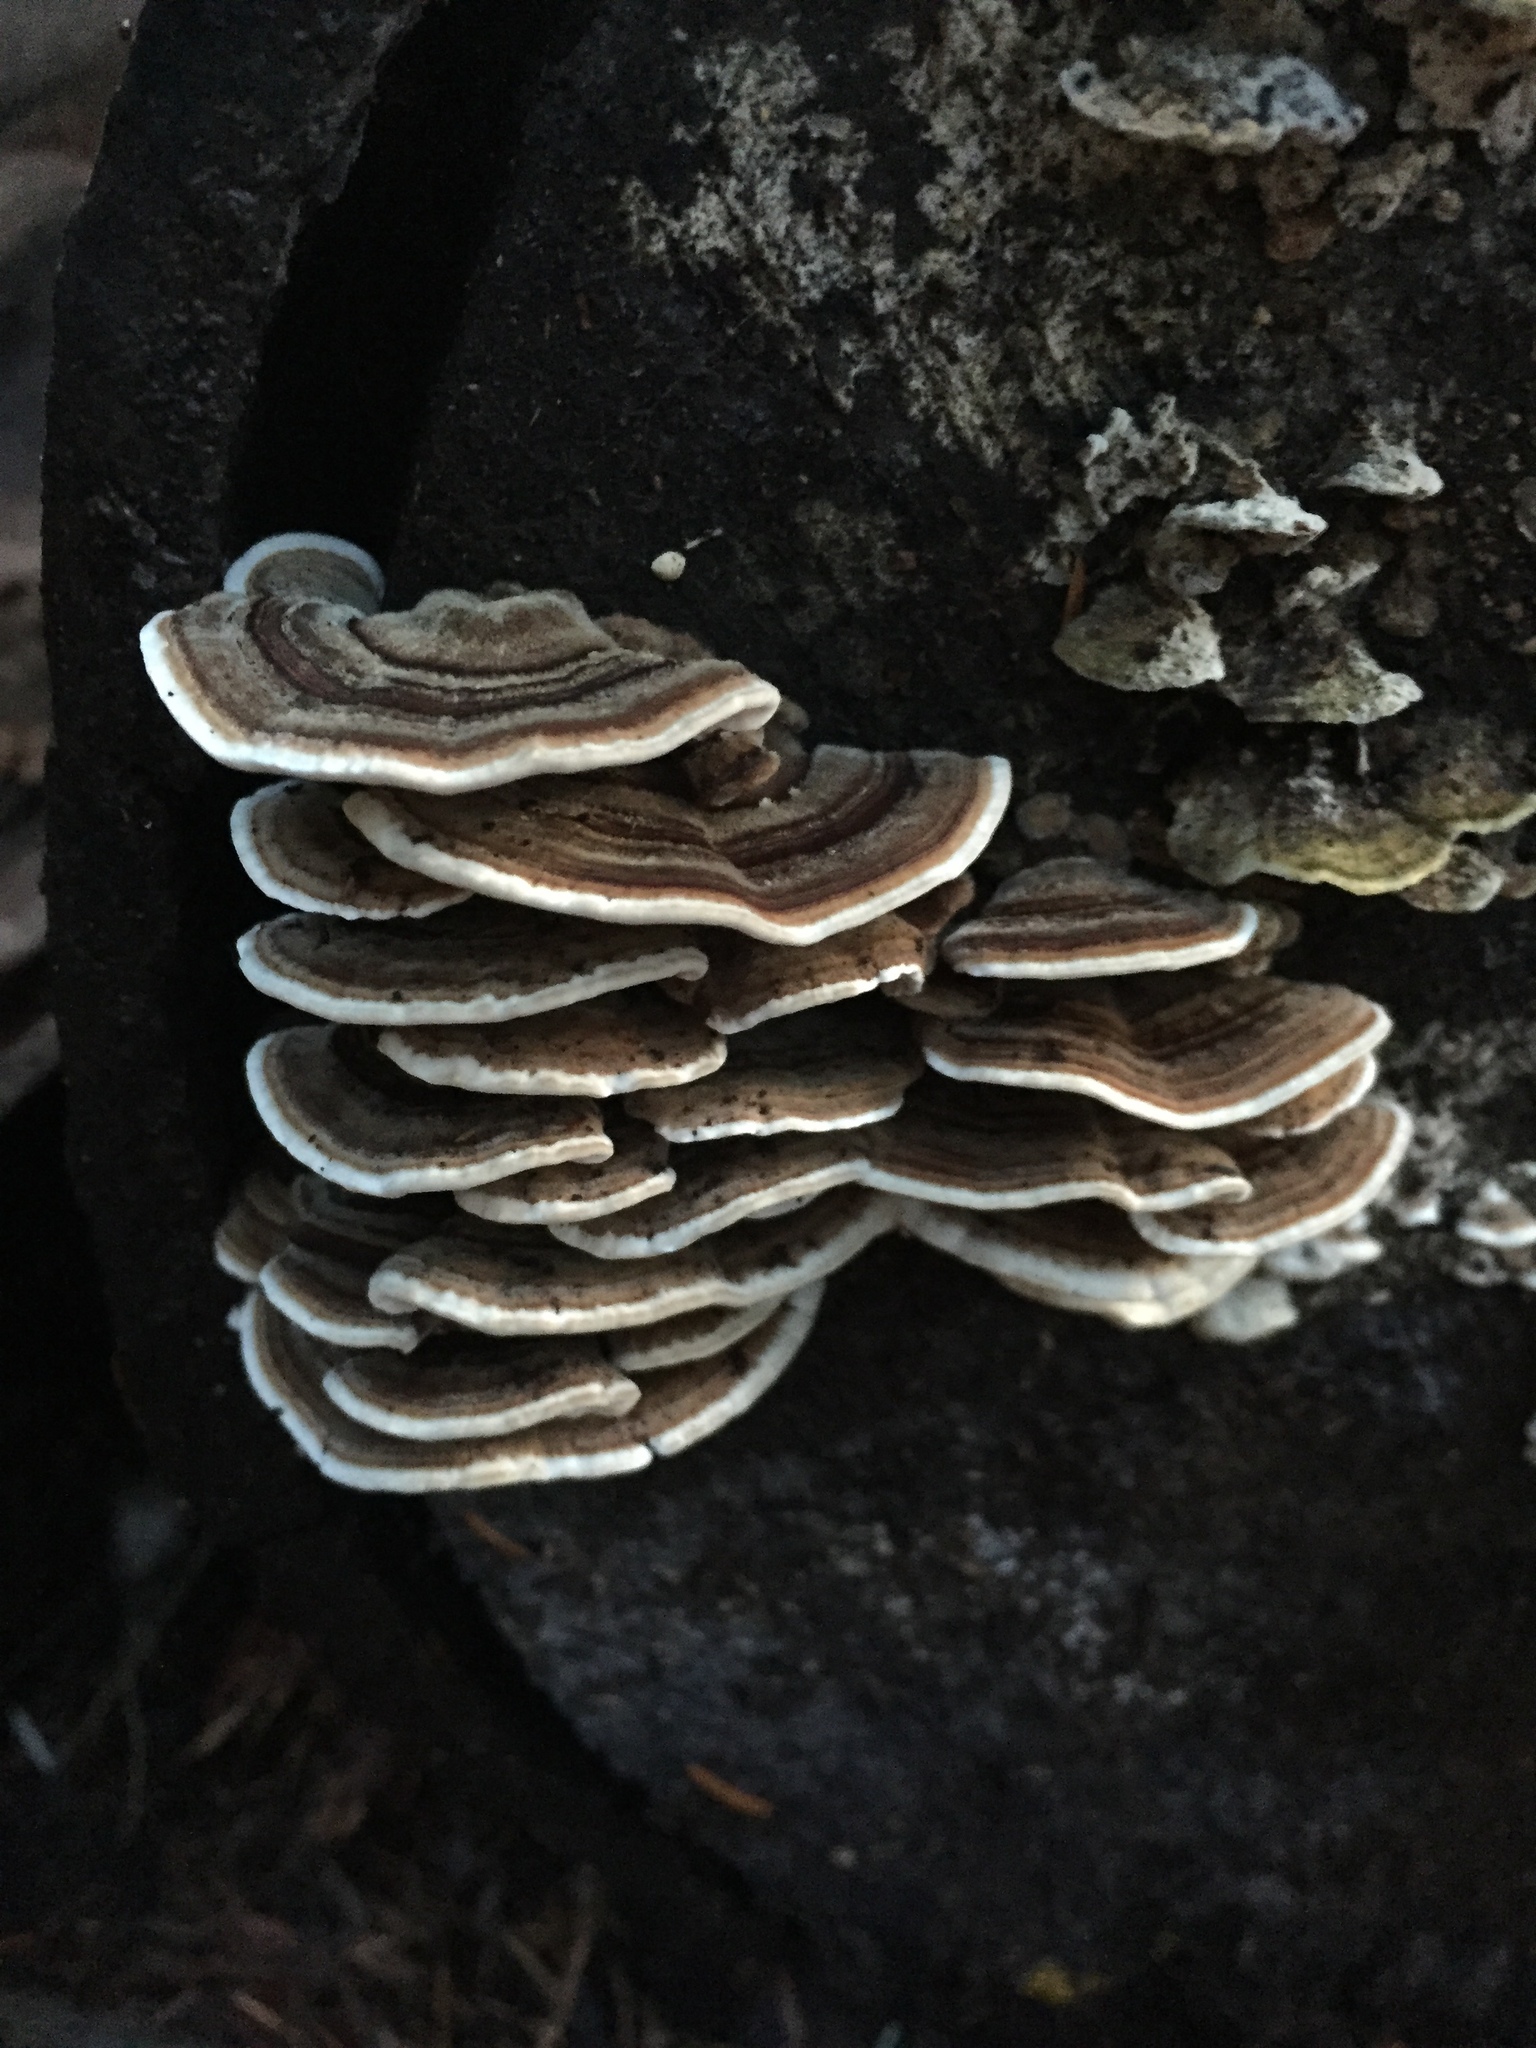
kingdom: Fungi
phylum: Basidiomycota
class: Agaricomycetes
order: Polyporales
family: Polyporaceae
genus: Trametes
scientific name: Trametes versicolor
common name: Turkeytail
